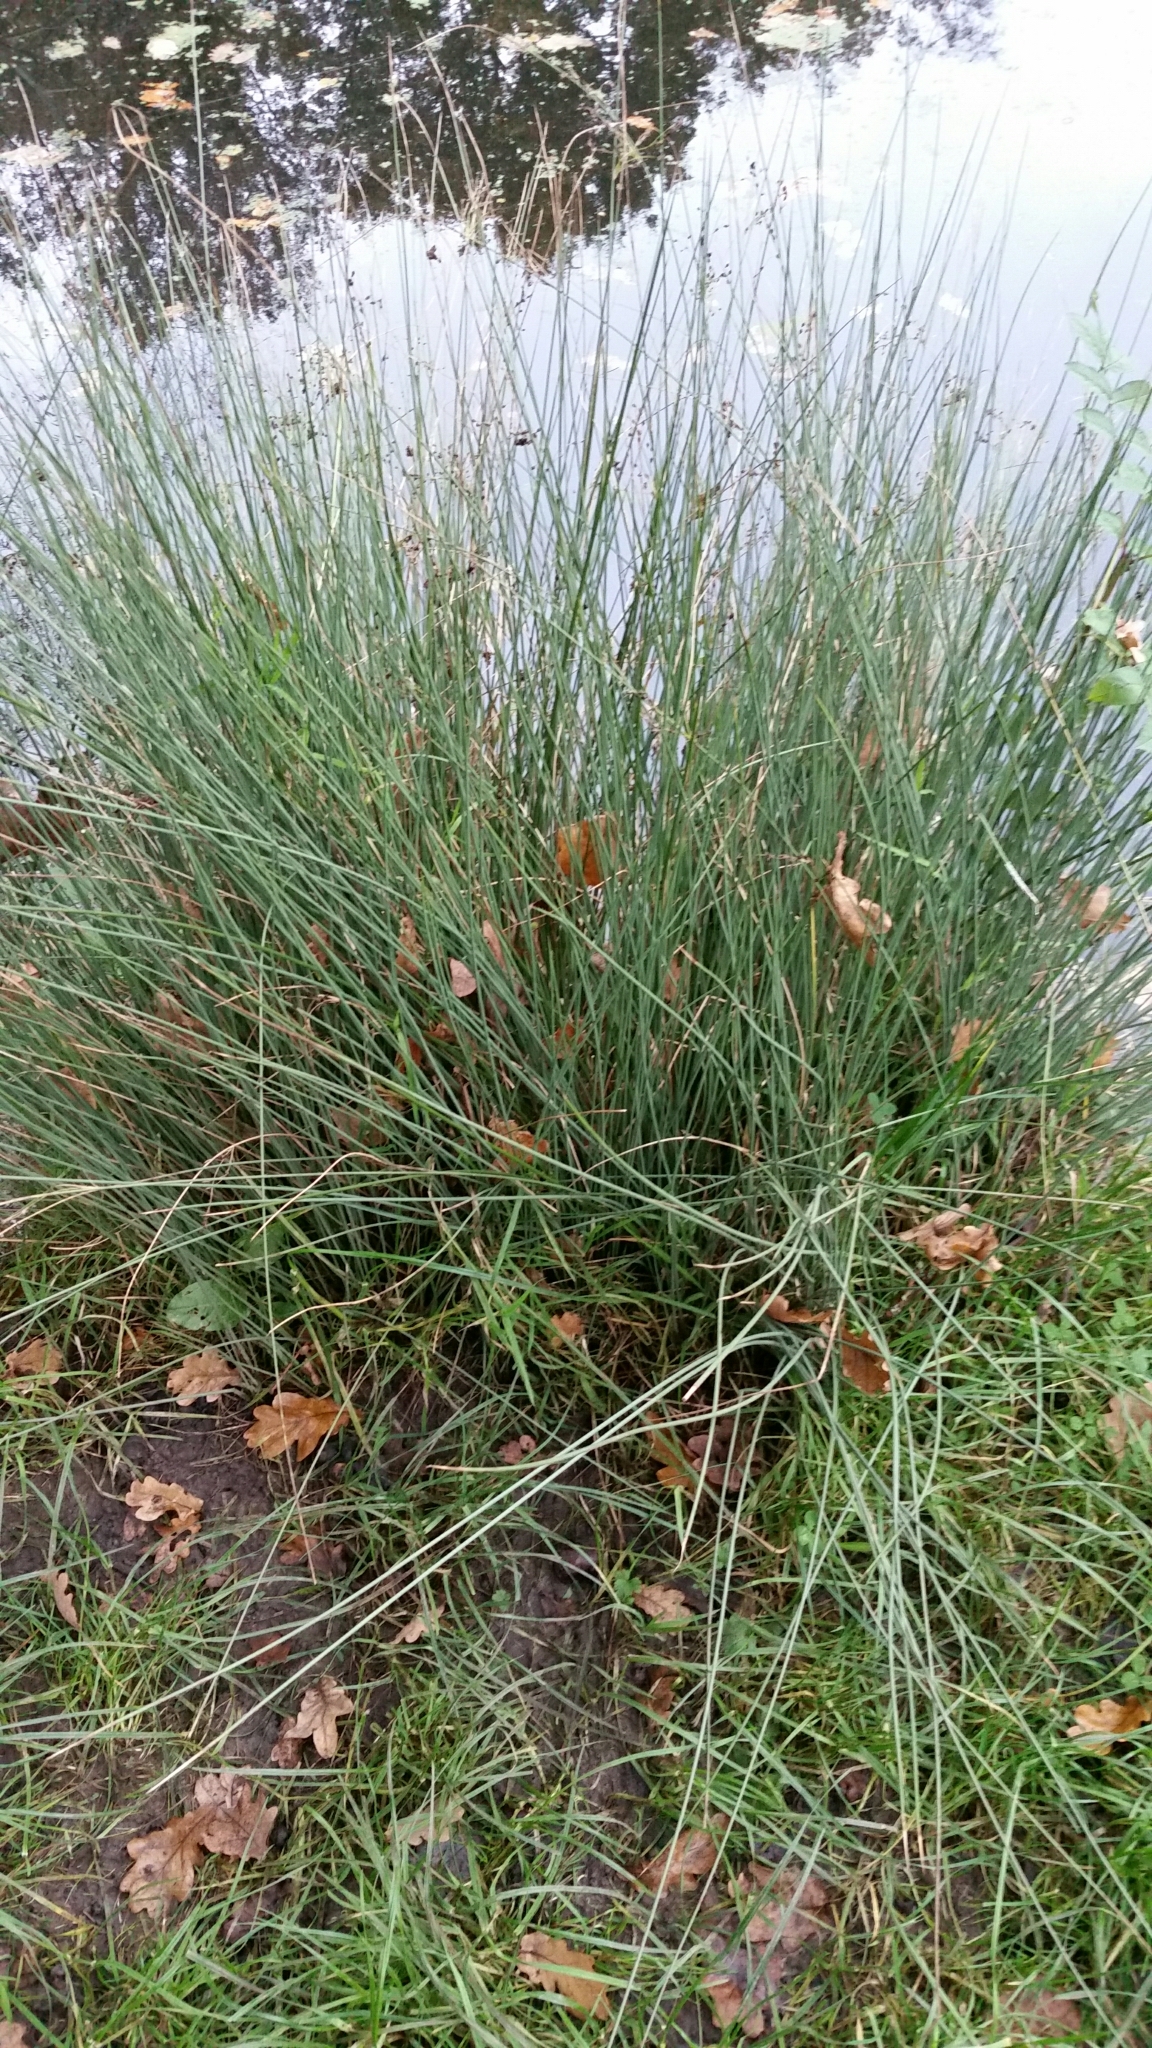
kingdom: Plantae
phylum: Tracheophyta
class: Liliopsida
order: Poales
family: Juncaceae
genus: Juncus
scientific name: Juncus inflexus
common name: Hard rush
